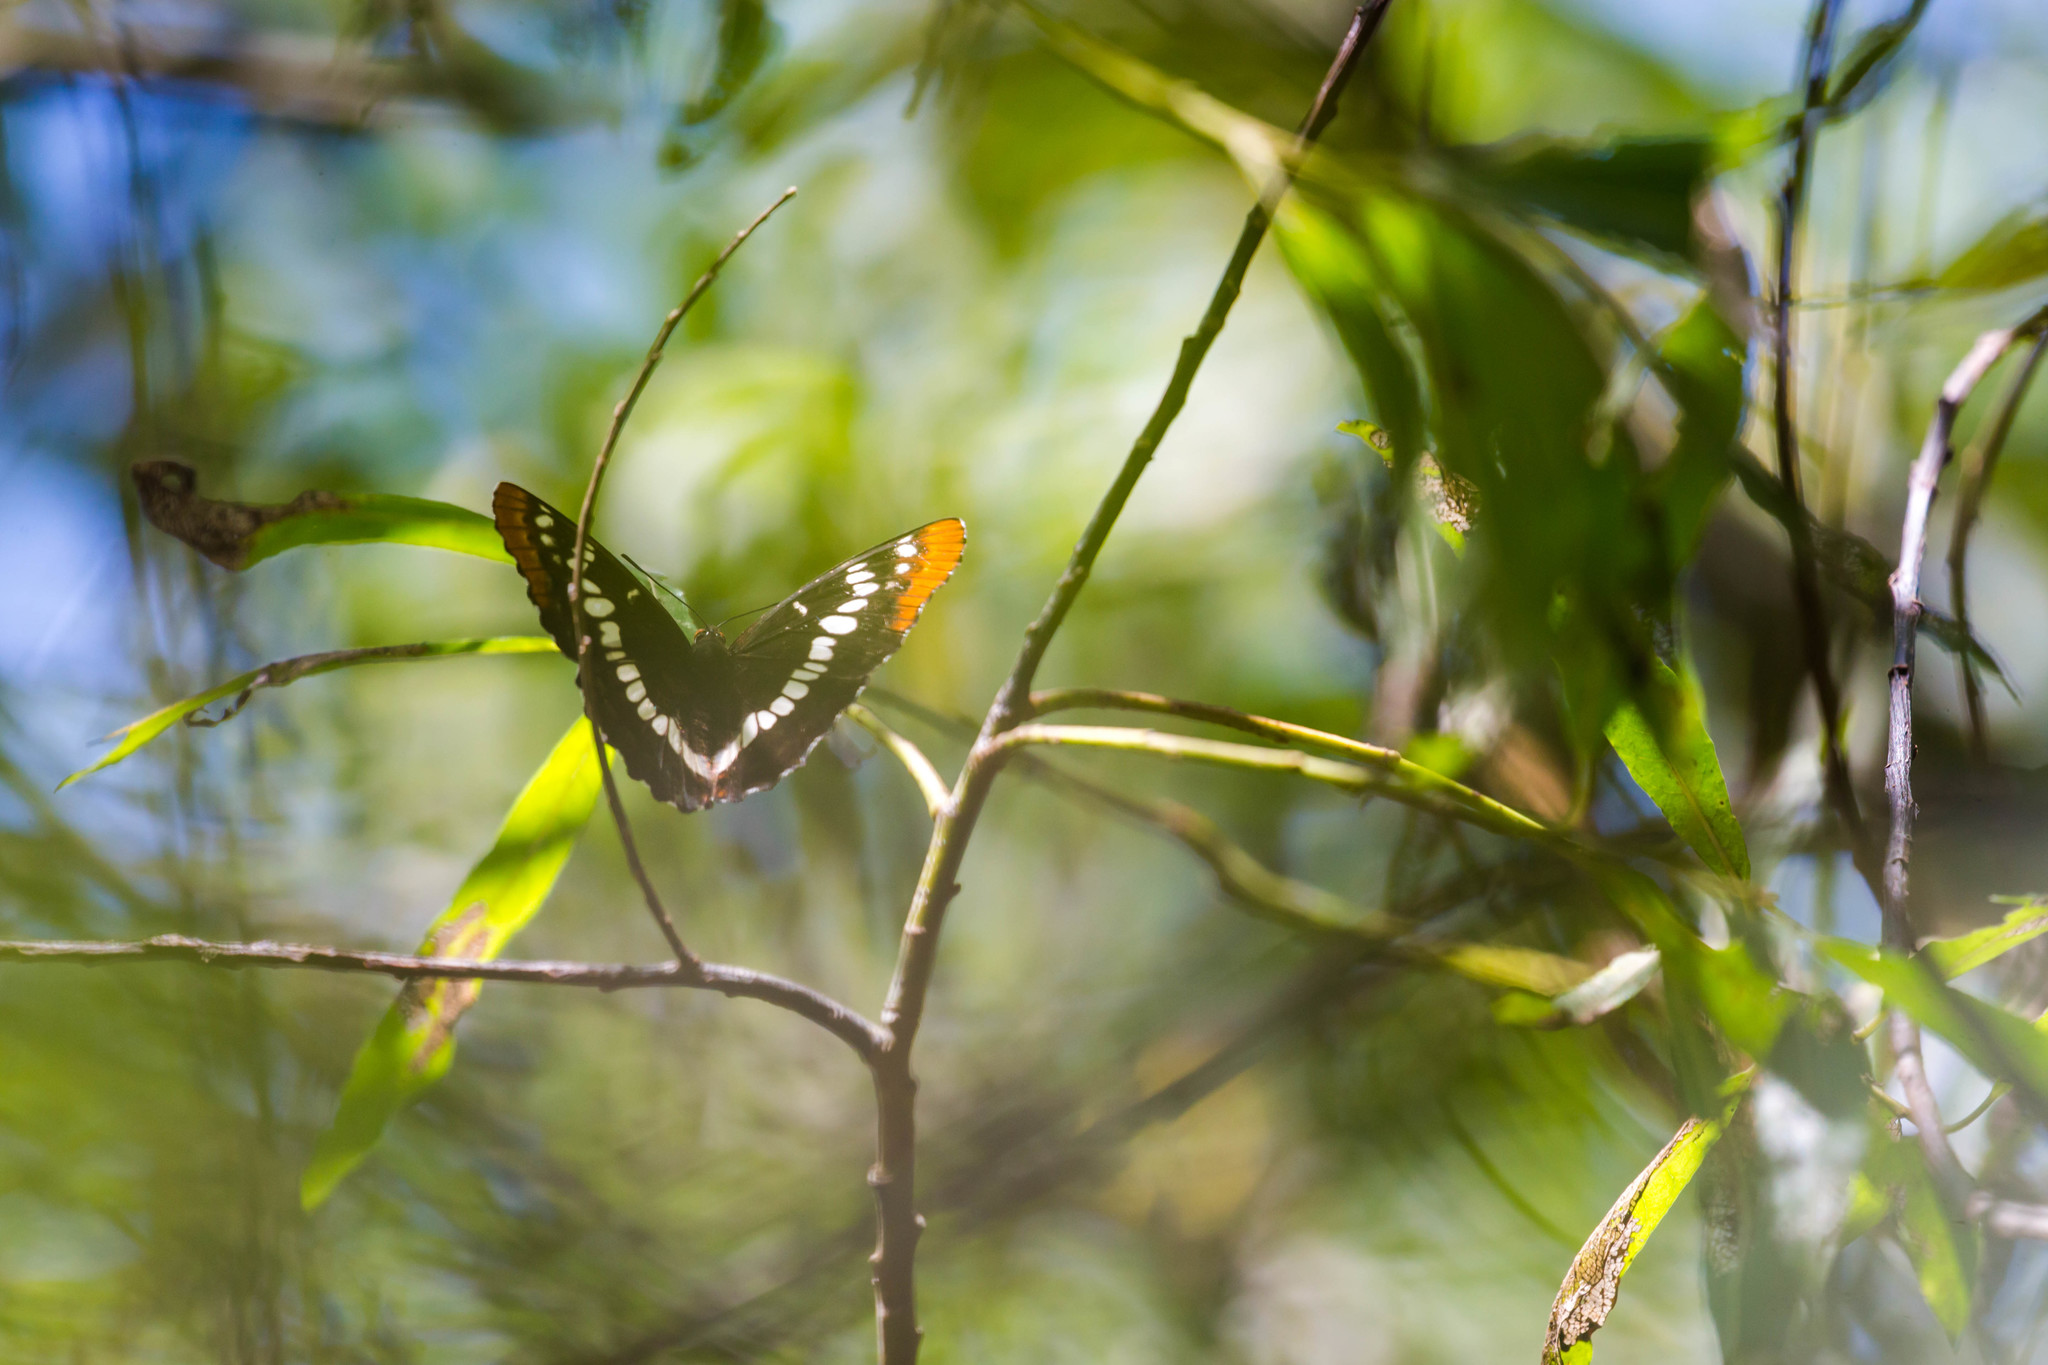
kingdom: Animalia
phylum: Arthropoda
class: Insecta
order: Lepidoptera
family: Nymphalidae
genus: Limenitis
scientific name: Limenitis lorquini
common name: Lorquin's admiral
